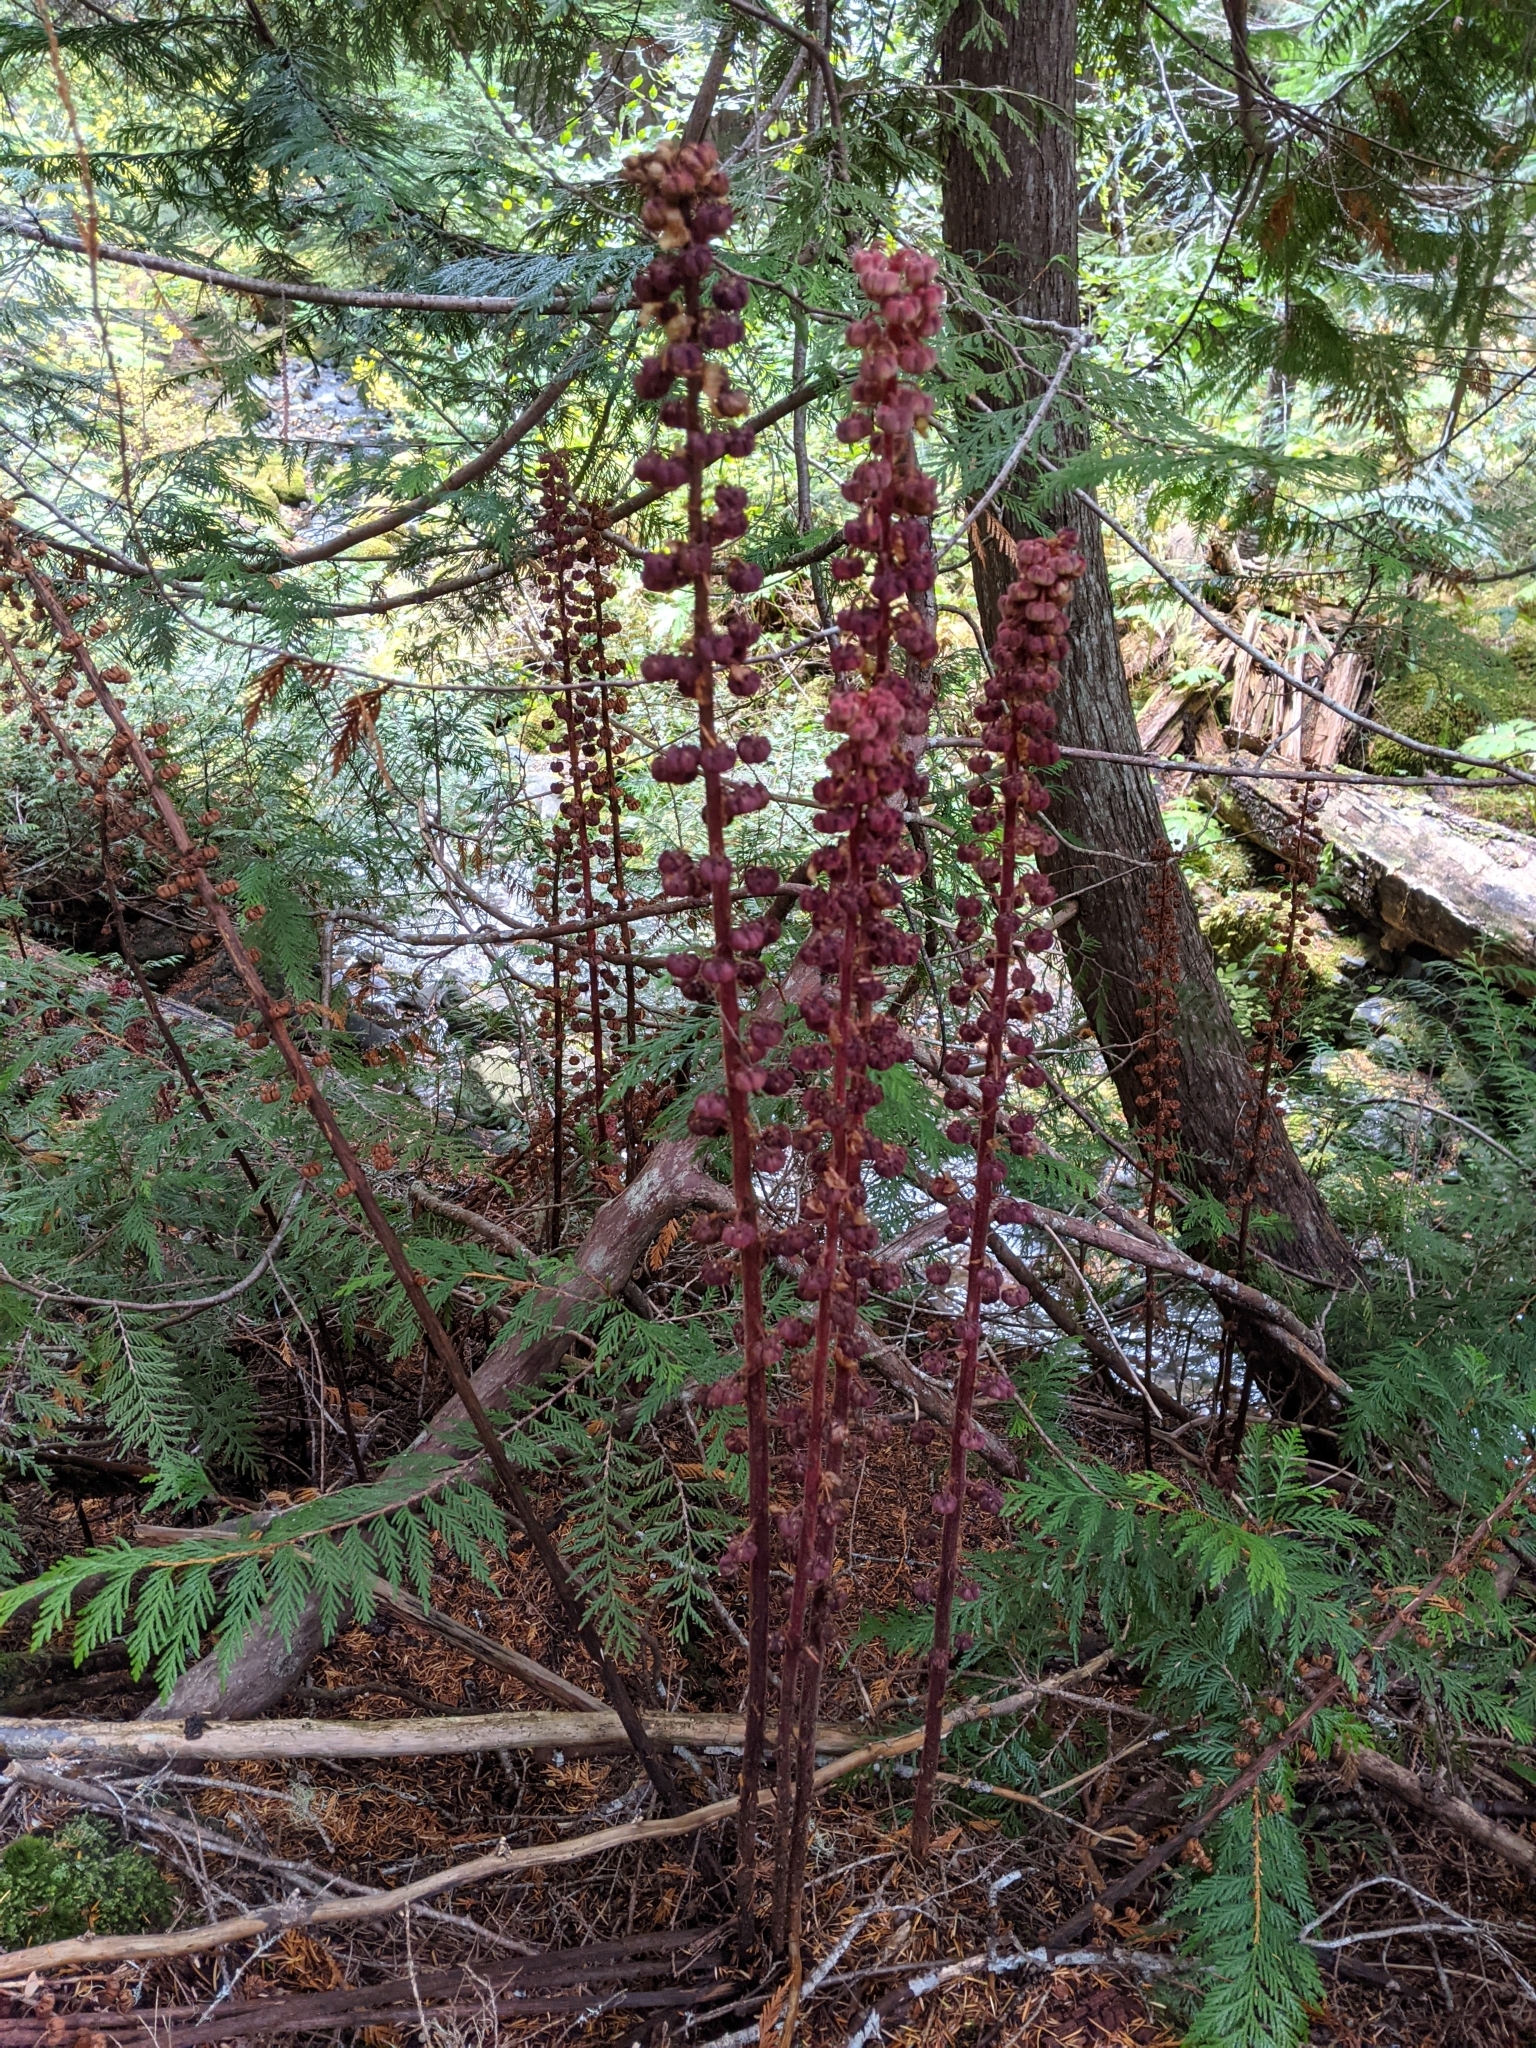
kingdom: Plantae
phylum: Tracheophyta
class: Magnoliopsida
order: Ericales
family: Ericaceae
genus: Pterospora
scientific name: Pterospora andromedea
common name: Giant bird's-nest
